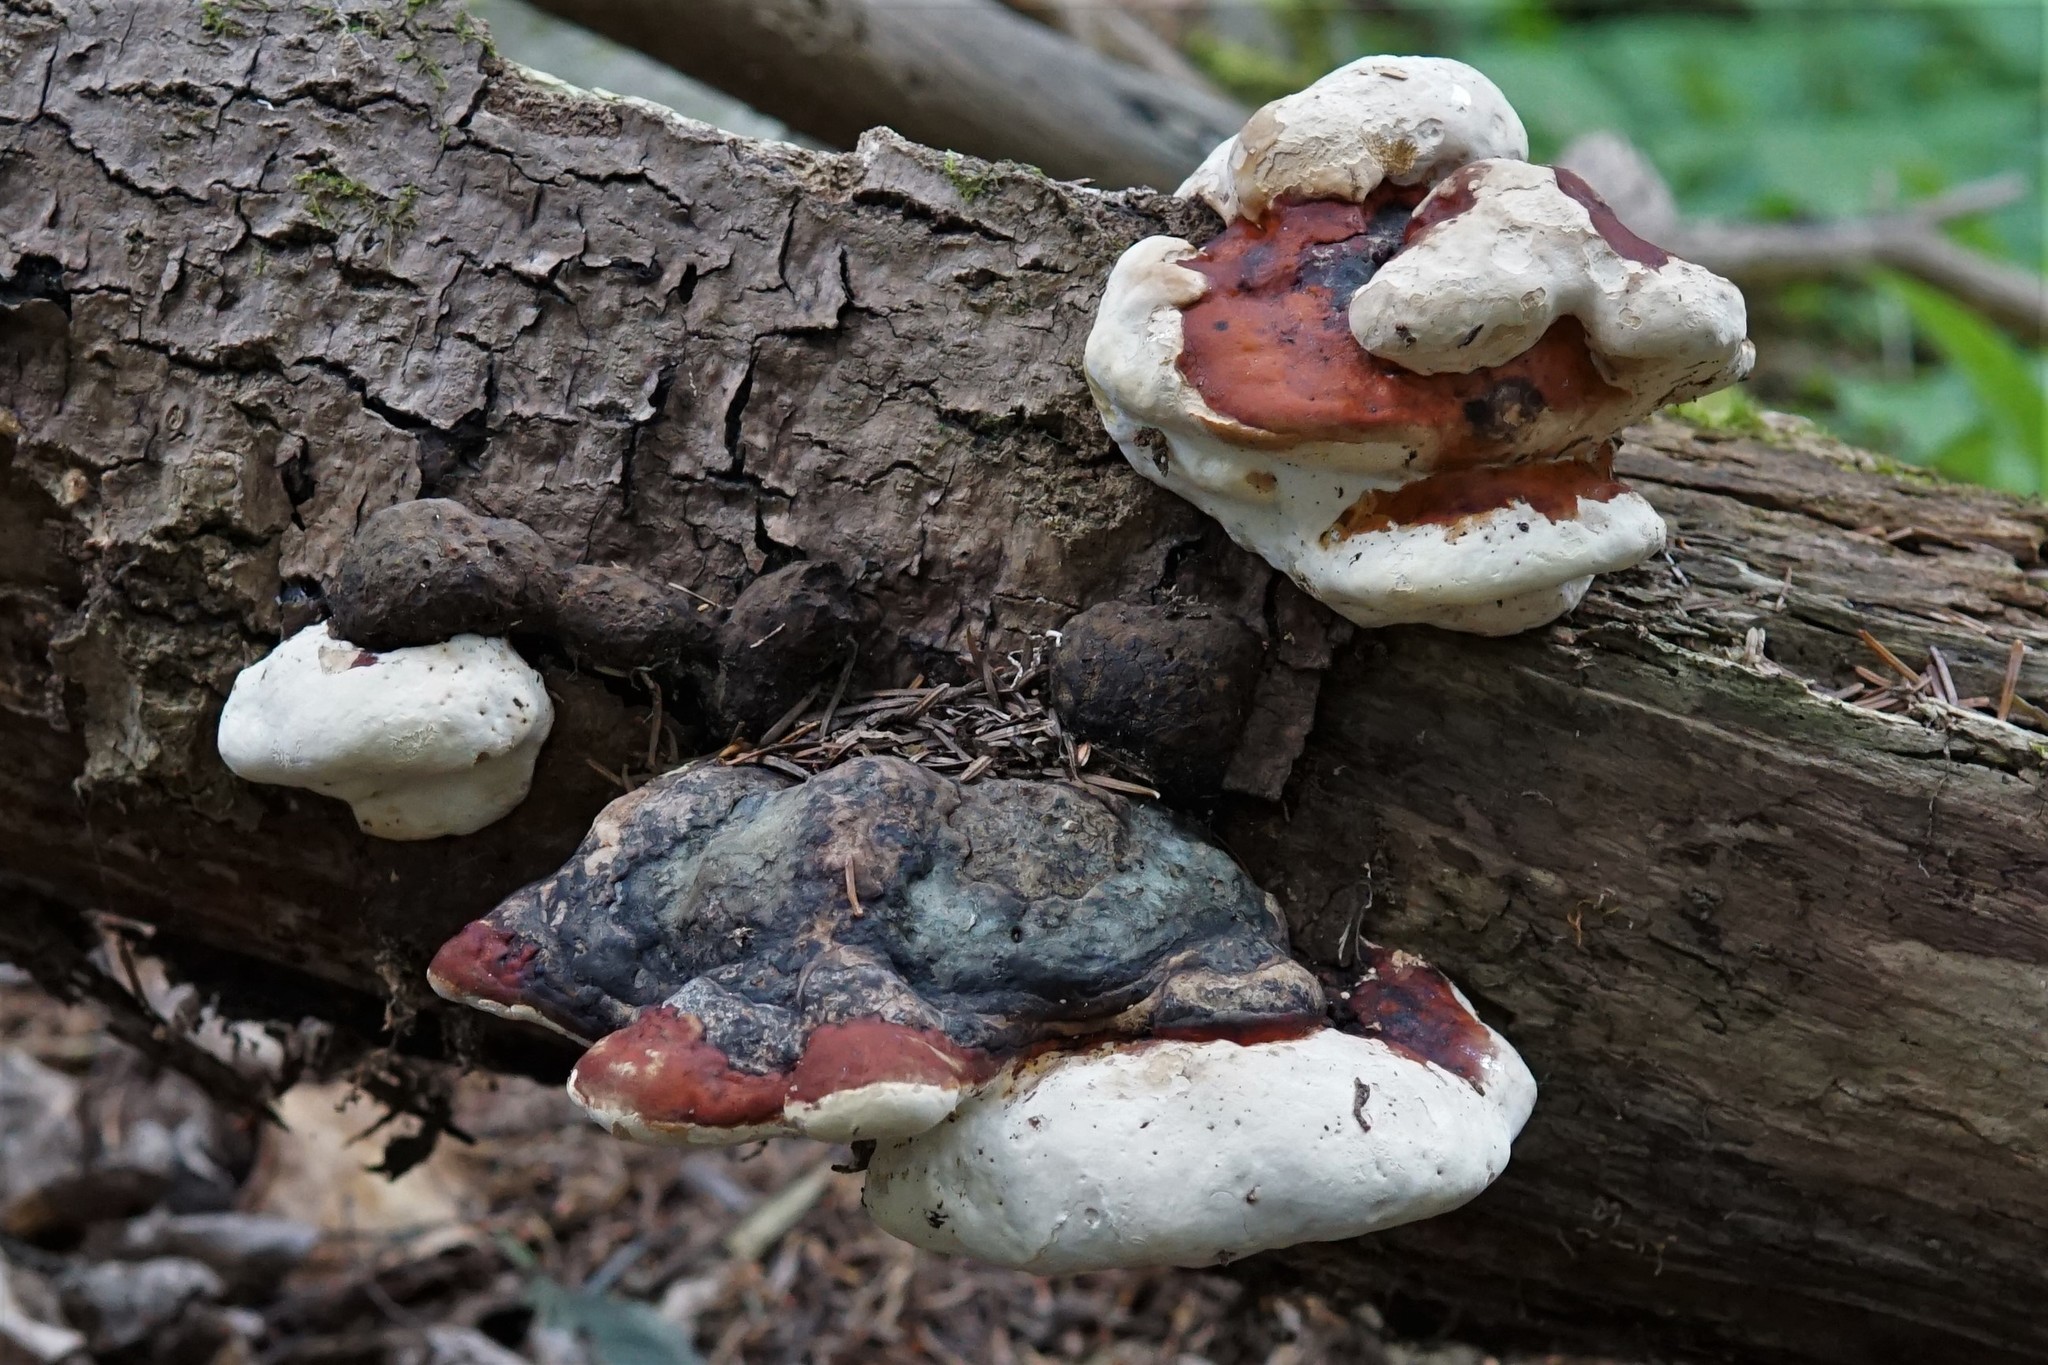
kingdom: Fungi
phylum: Basidiomycota
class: Agaricomycetes
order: Polyporales
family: Fomitopsidaceae
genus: Fomitopsis
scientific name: Fomitopsis mounceae
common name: Northern red belt
